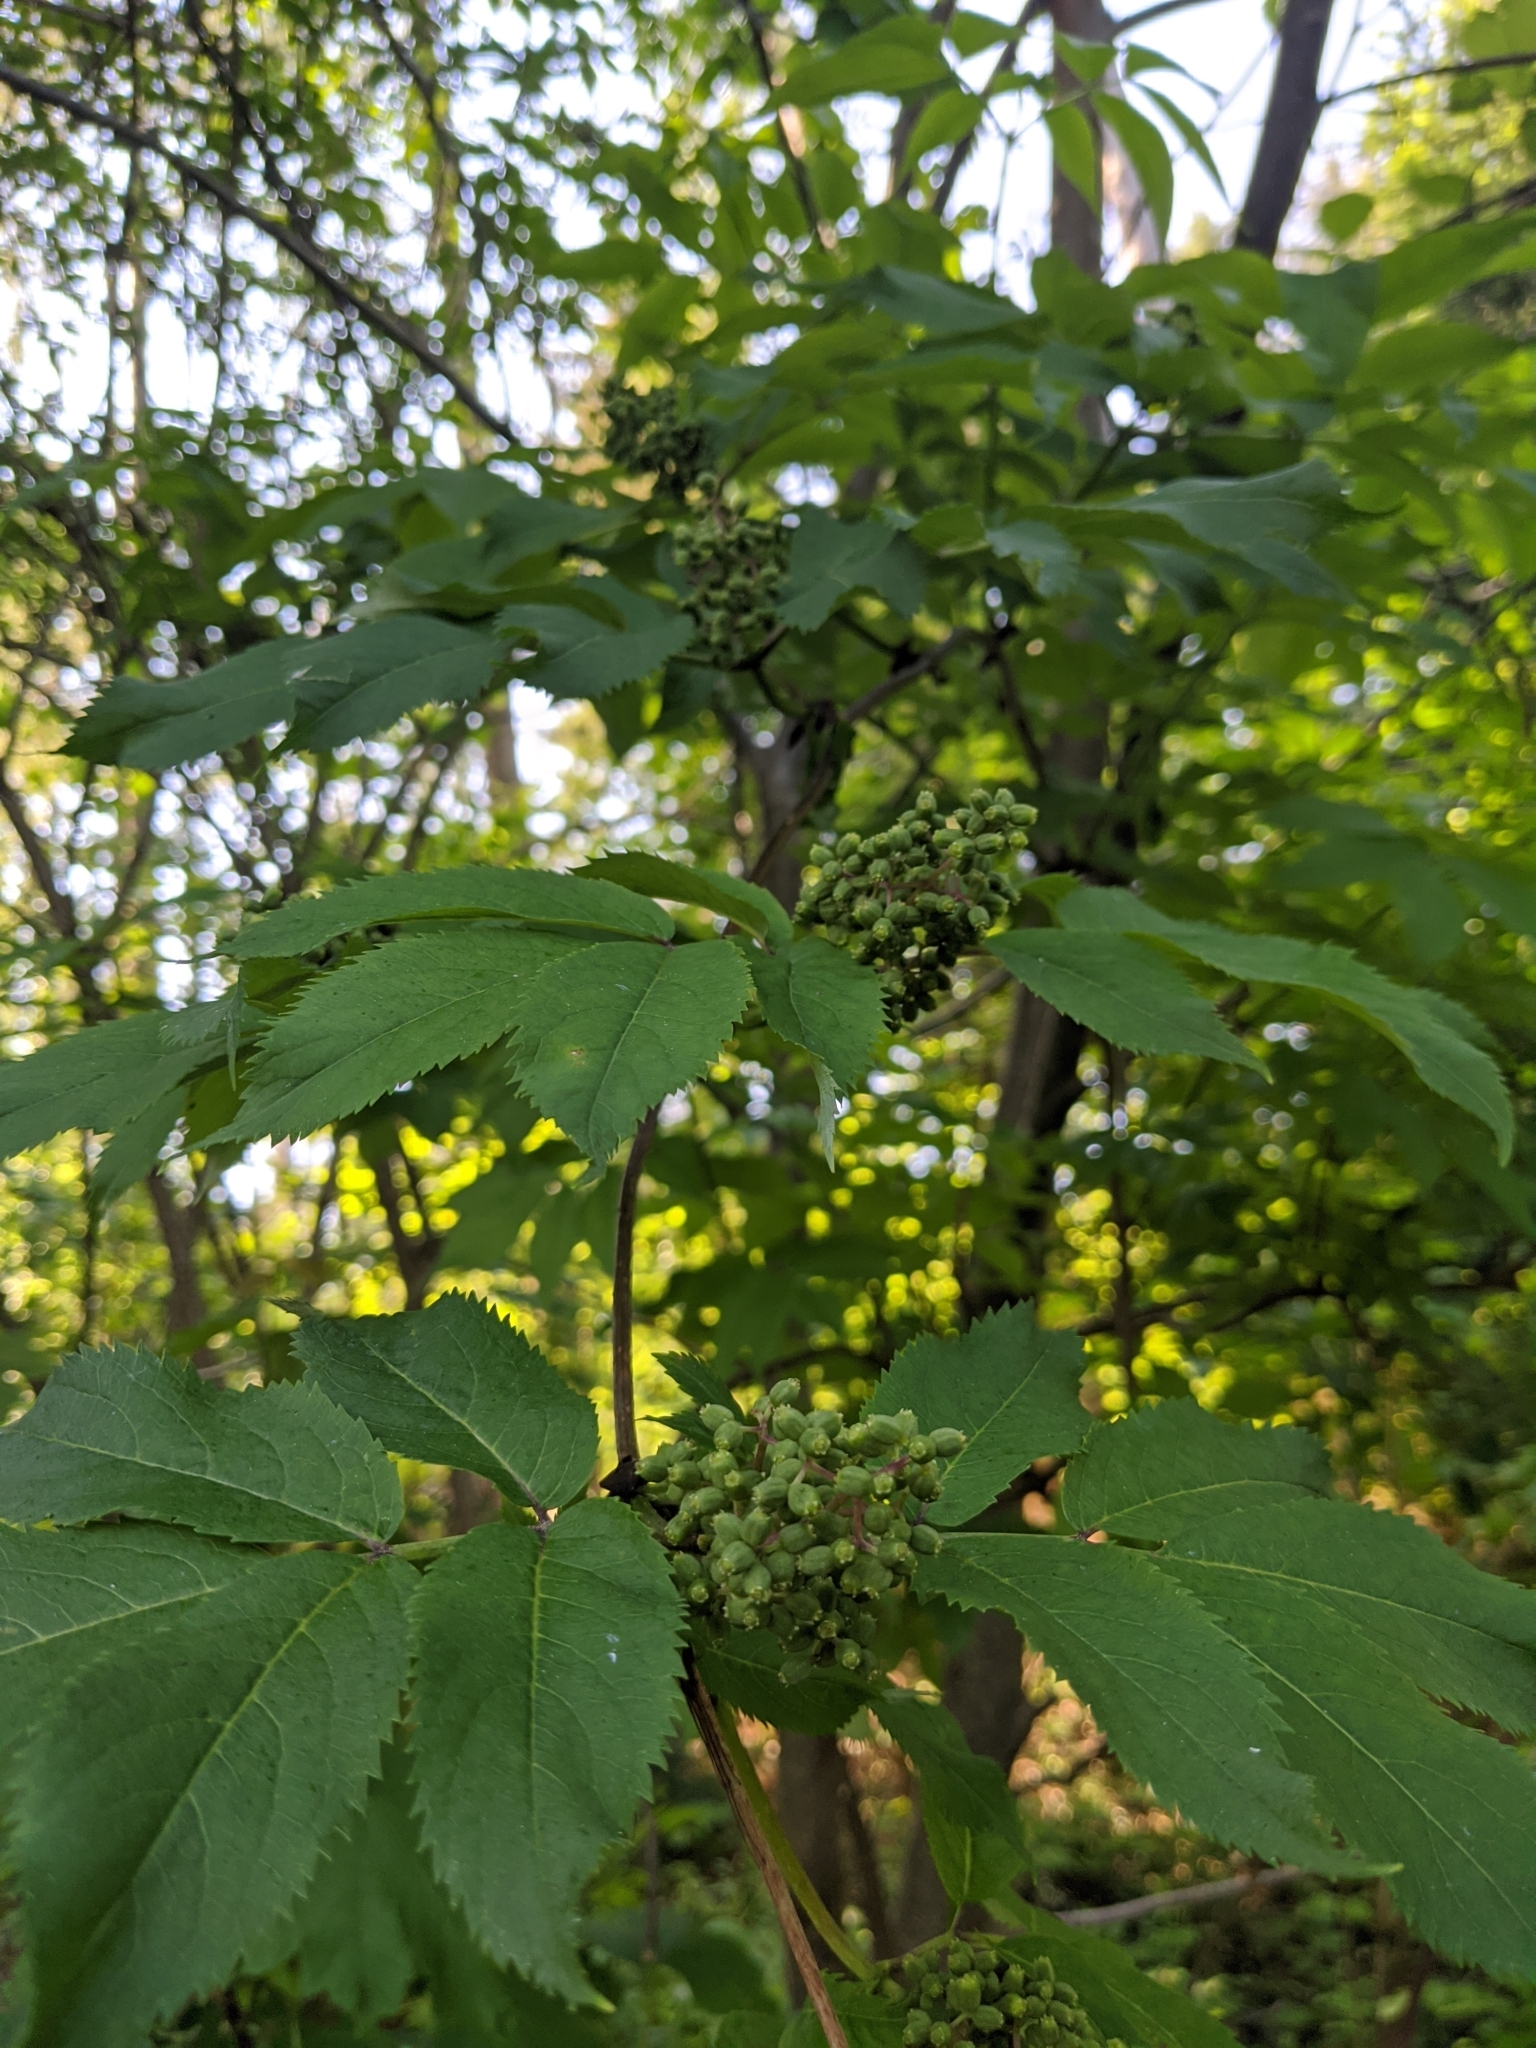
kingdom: Plantae
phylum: Tracheophyta
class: Magnoliopsida
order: Dipsacales
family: Viburnaceae
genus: Sambucus
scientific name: Sambucus racemosa
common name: Red-berried elder
